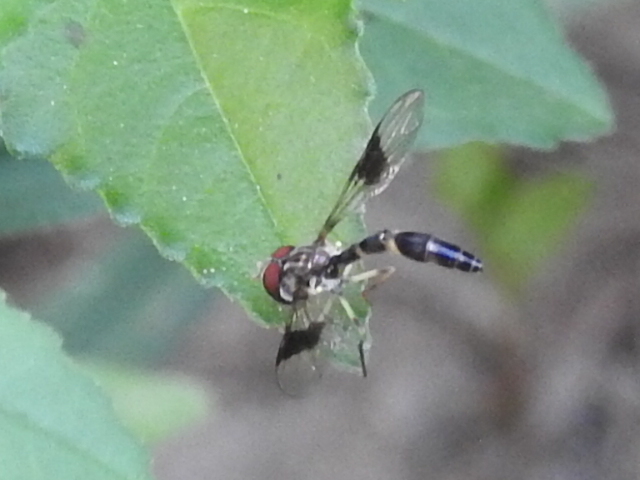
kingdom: Animalia
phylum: Arthropoda
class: Insecta
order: Diptera
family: Syrphidae
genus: Hypocritanus
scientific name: Hypocritanus fascipennis
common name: Eastern band-winged hover fly
